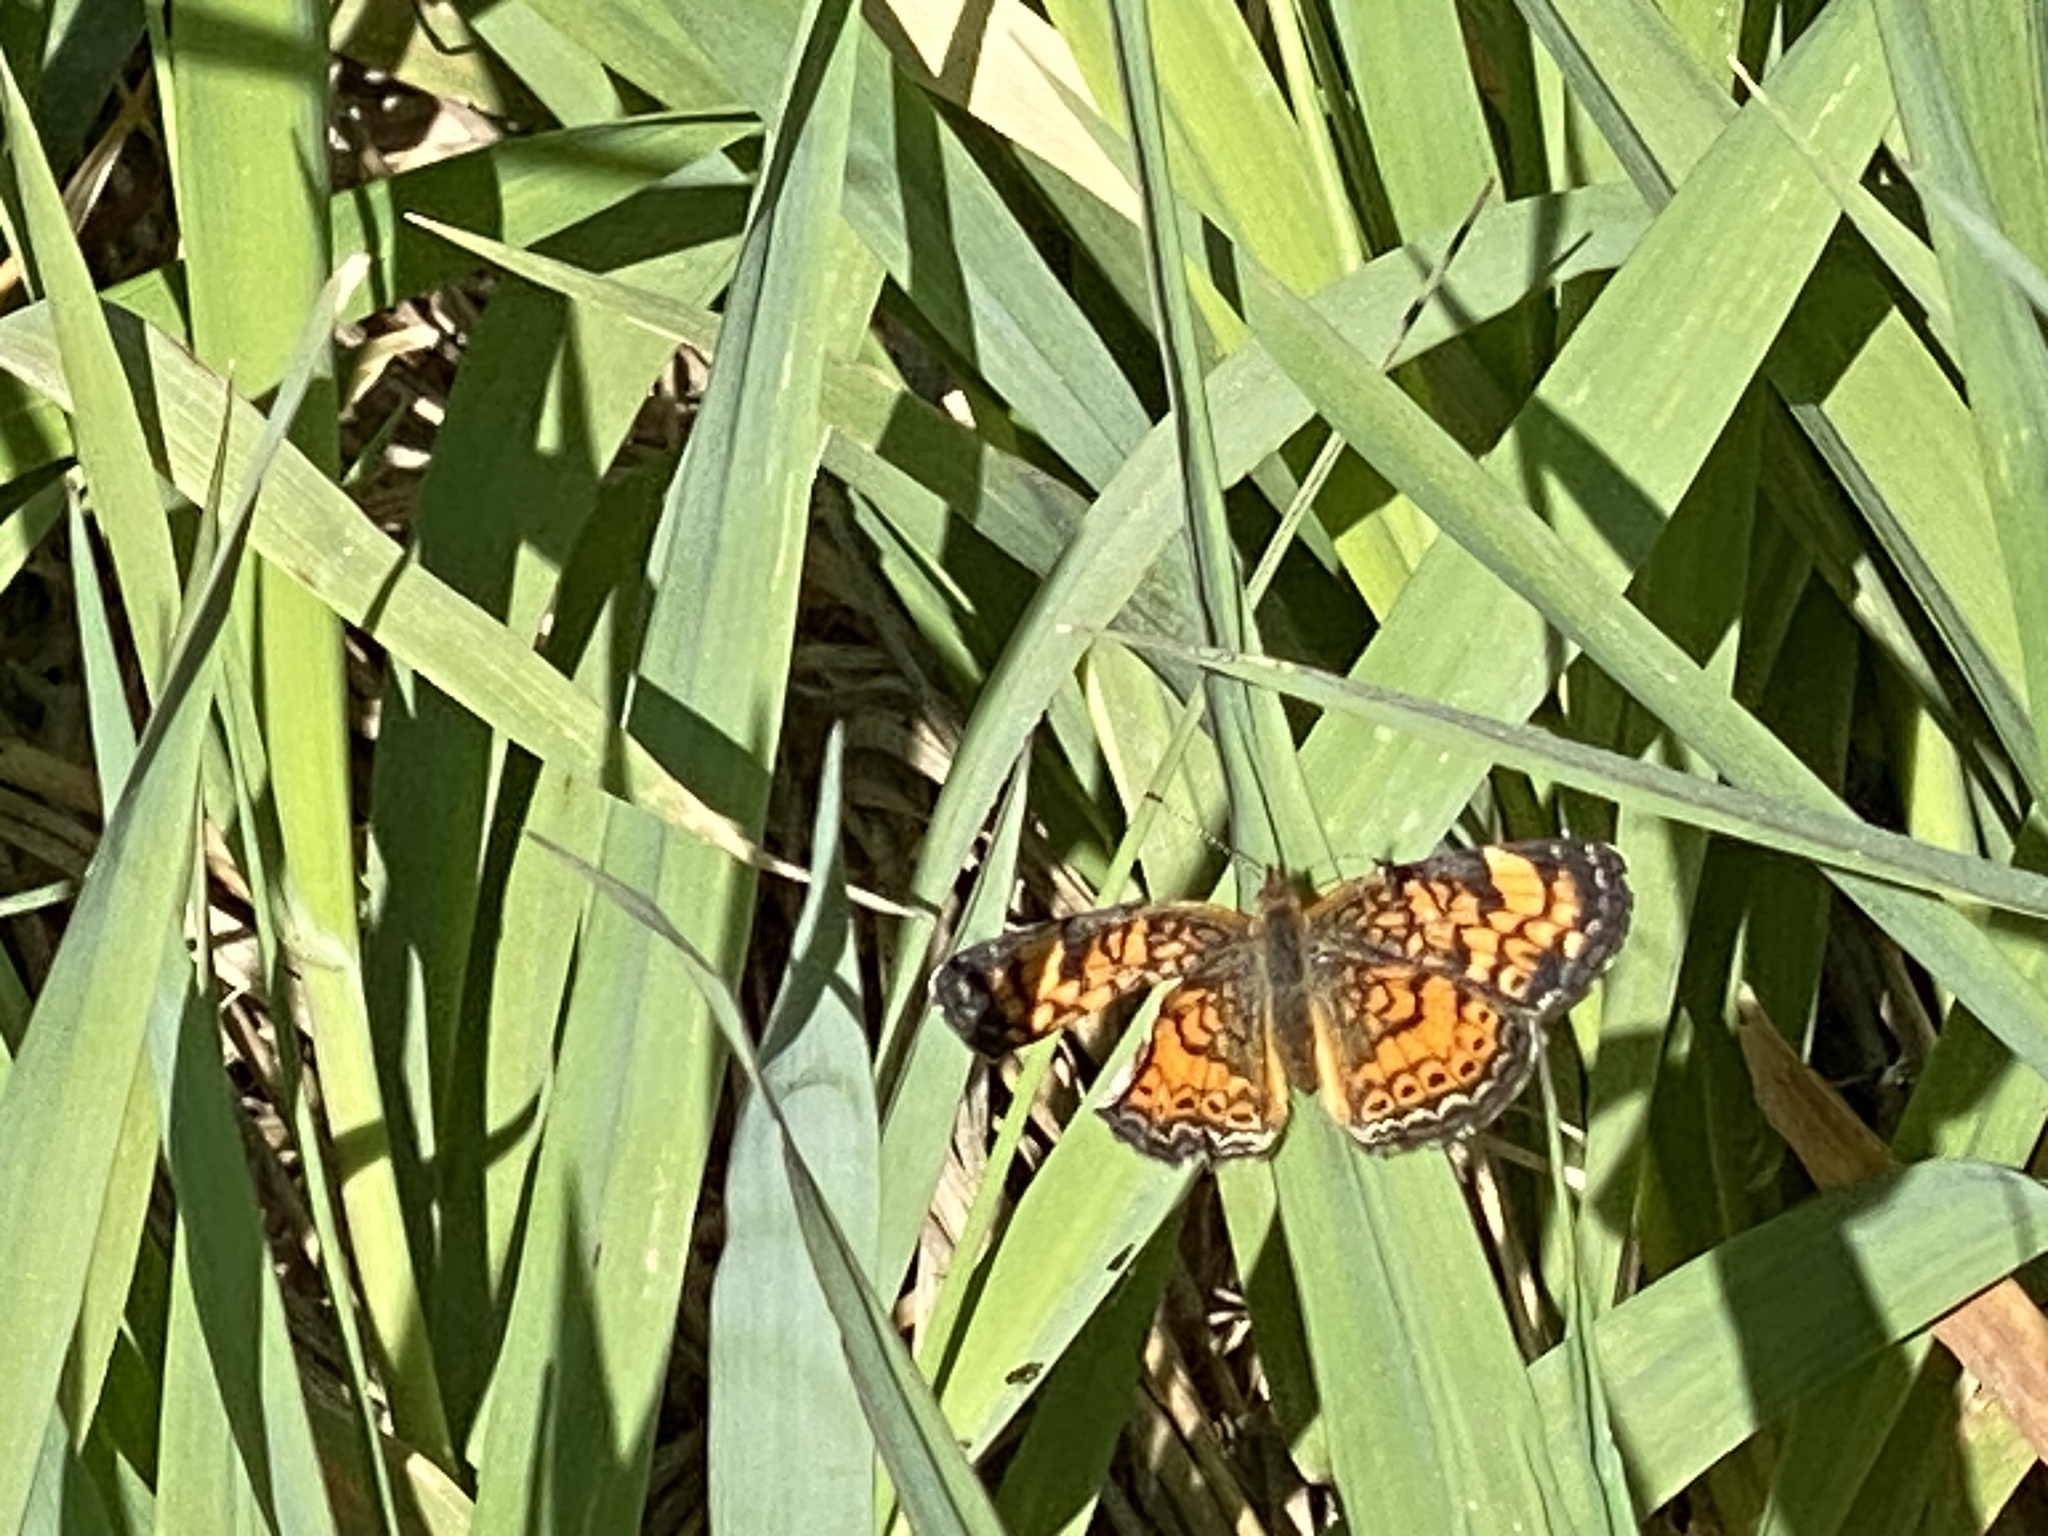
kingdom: Animalia
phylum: Arthropoda
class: Insecta
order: Lepidoptera
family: Nymphalidae
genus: Phyciodes
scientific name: Phyciodes tharos
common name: Pearl crescent
